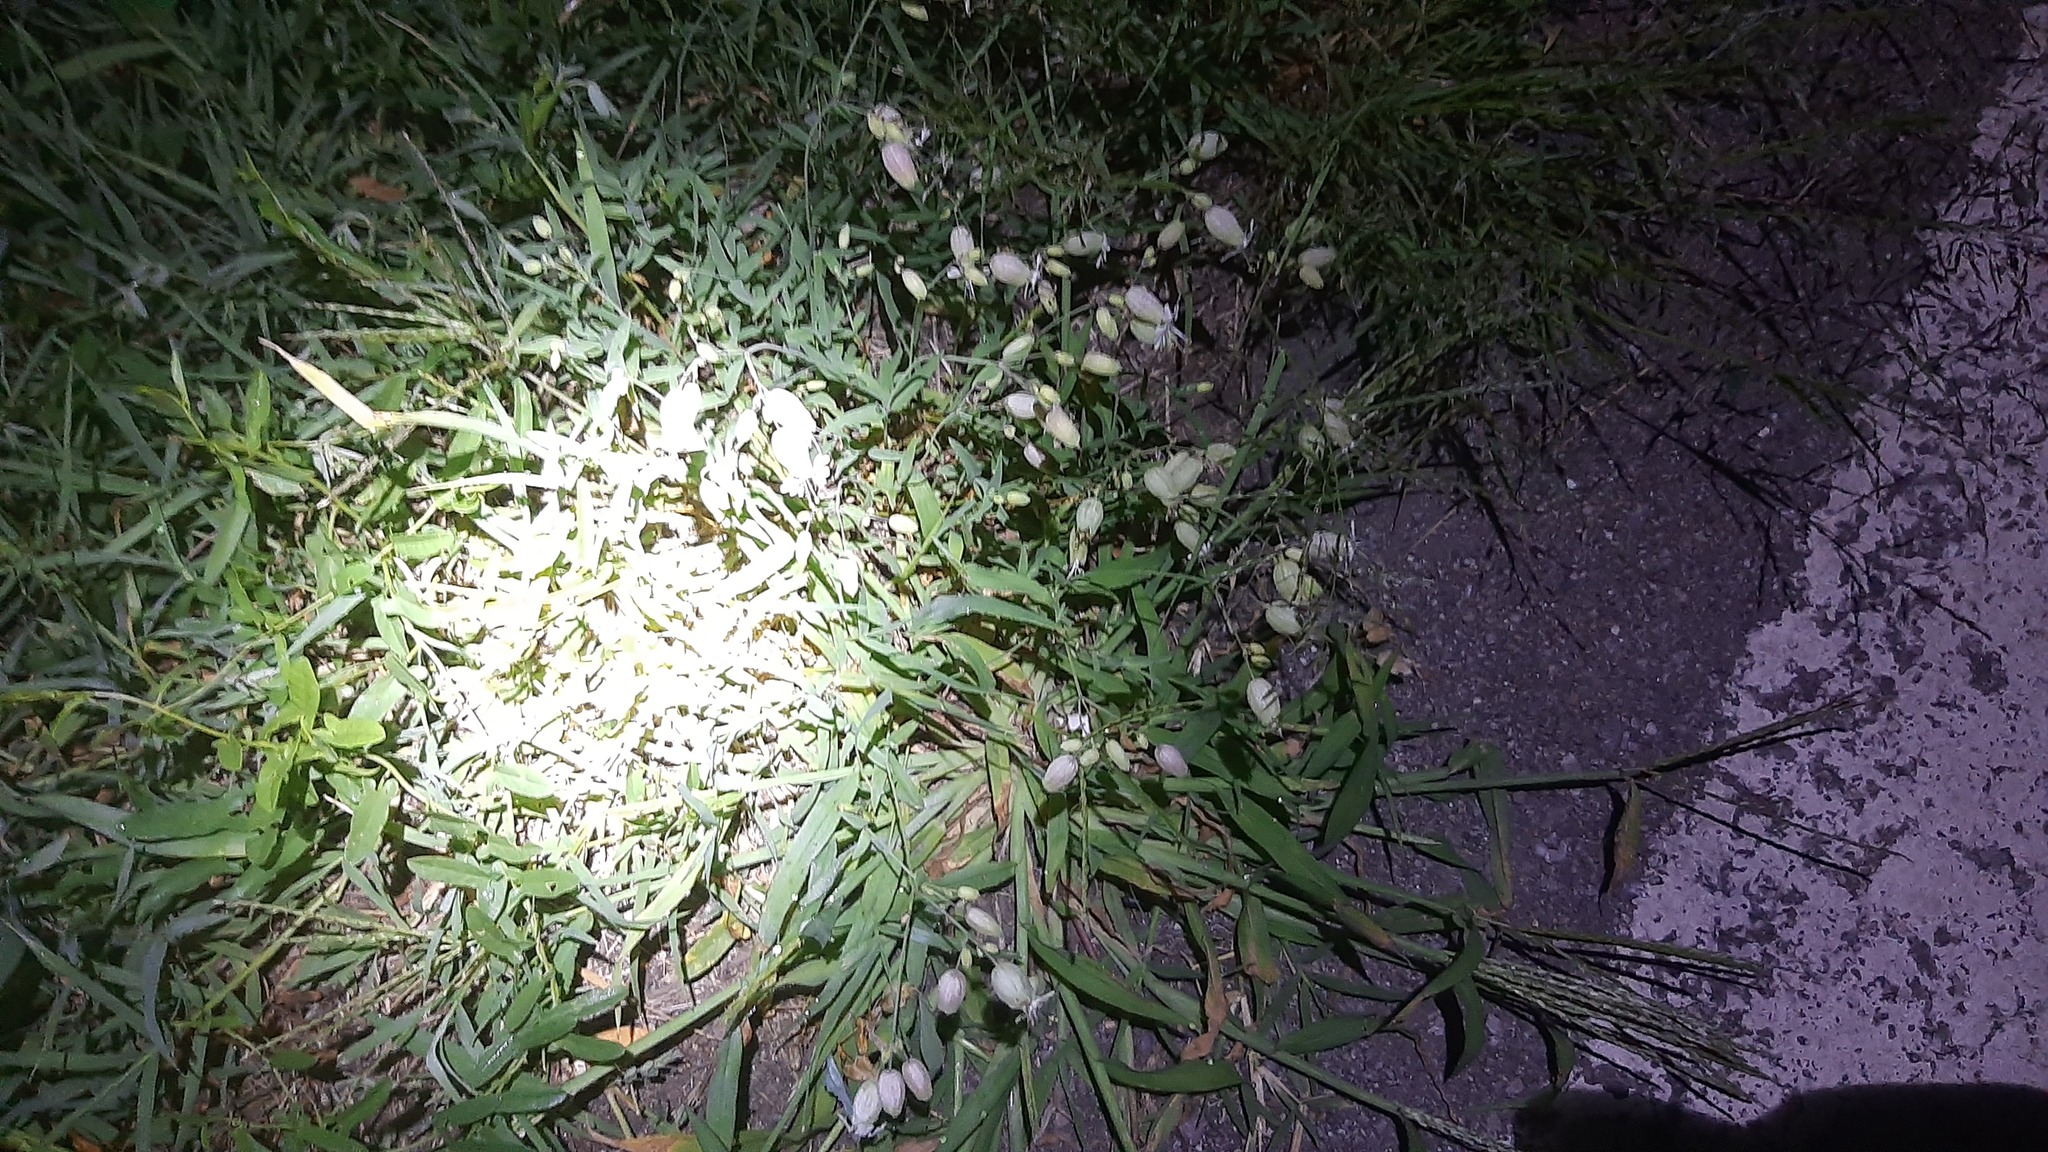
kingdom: Plantae
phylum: Tracheophyta
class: Magnoliopsida
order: Caryophyllales
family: Caryophyllaceae
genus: Silene
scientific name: Silene vulgaris
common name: Bladder campion
